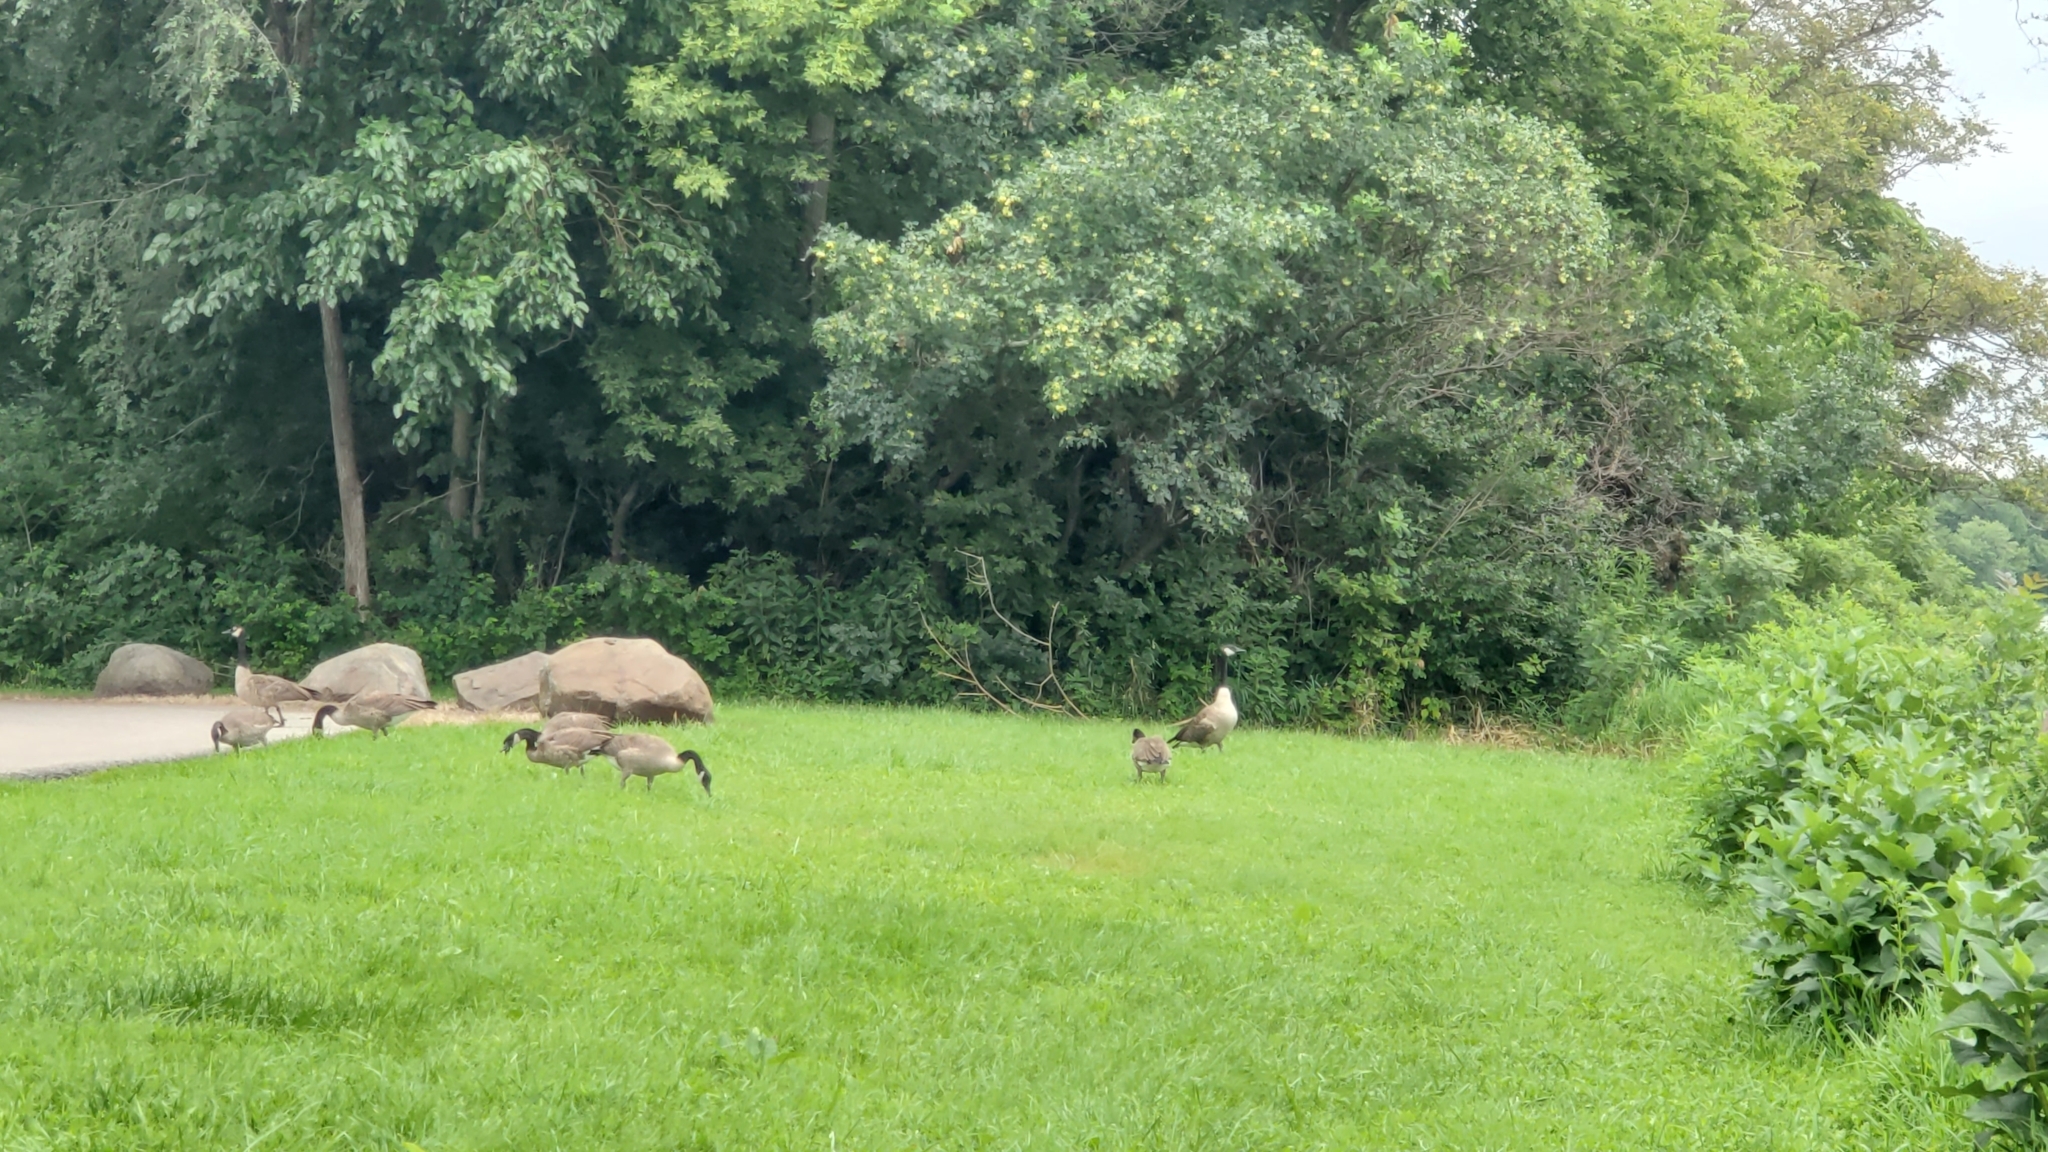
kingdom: Animalia
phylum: Chordata
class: Aves
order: Anseriformes
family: Anatidae
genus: Branta
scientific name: Branta canadensis
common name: Canada goose
